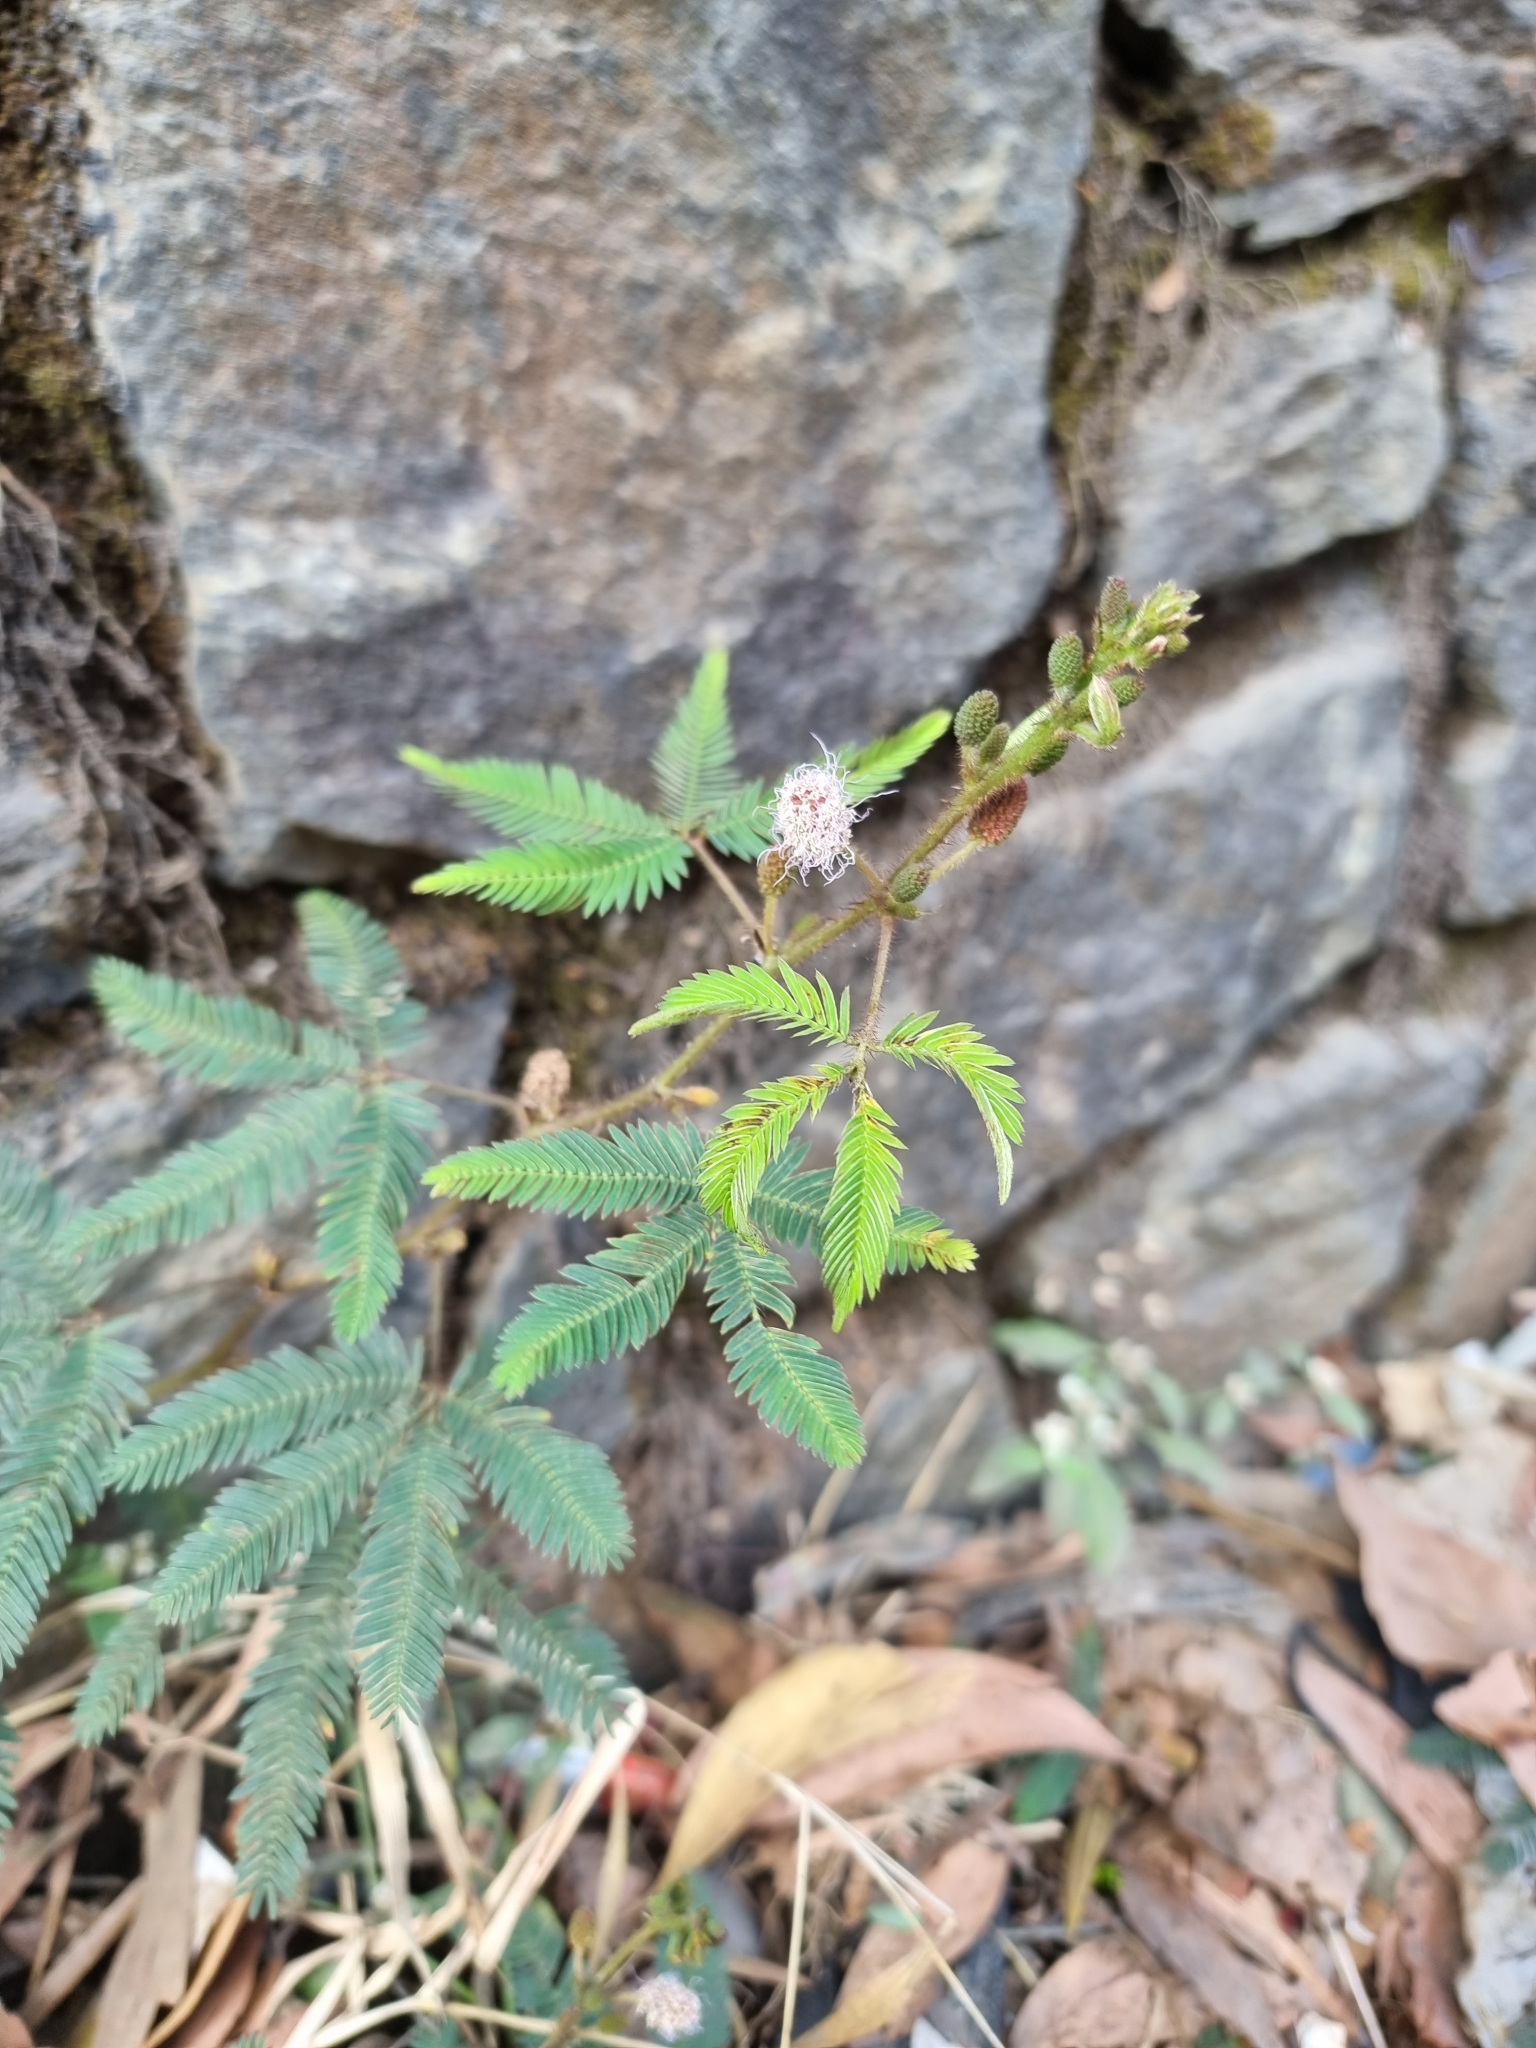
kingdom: Plantae
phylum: Tracheophyta
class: Magnoliopsida
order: Fabales
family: Fabaceae
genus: Mimosa
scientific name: Mimosa pudica
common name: Sensitive plant
